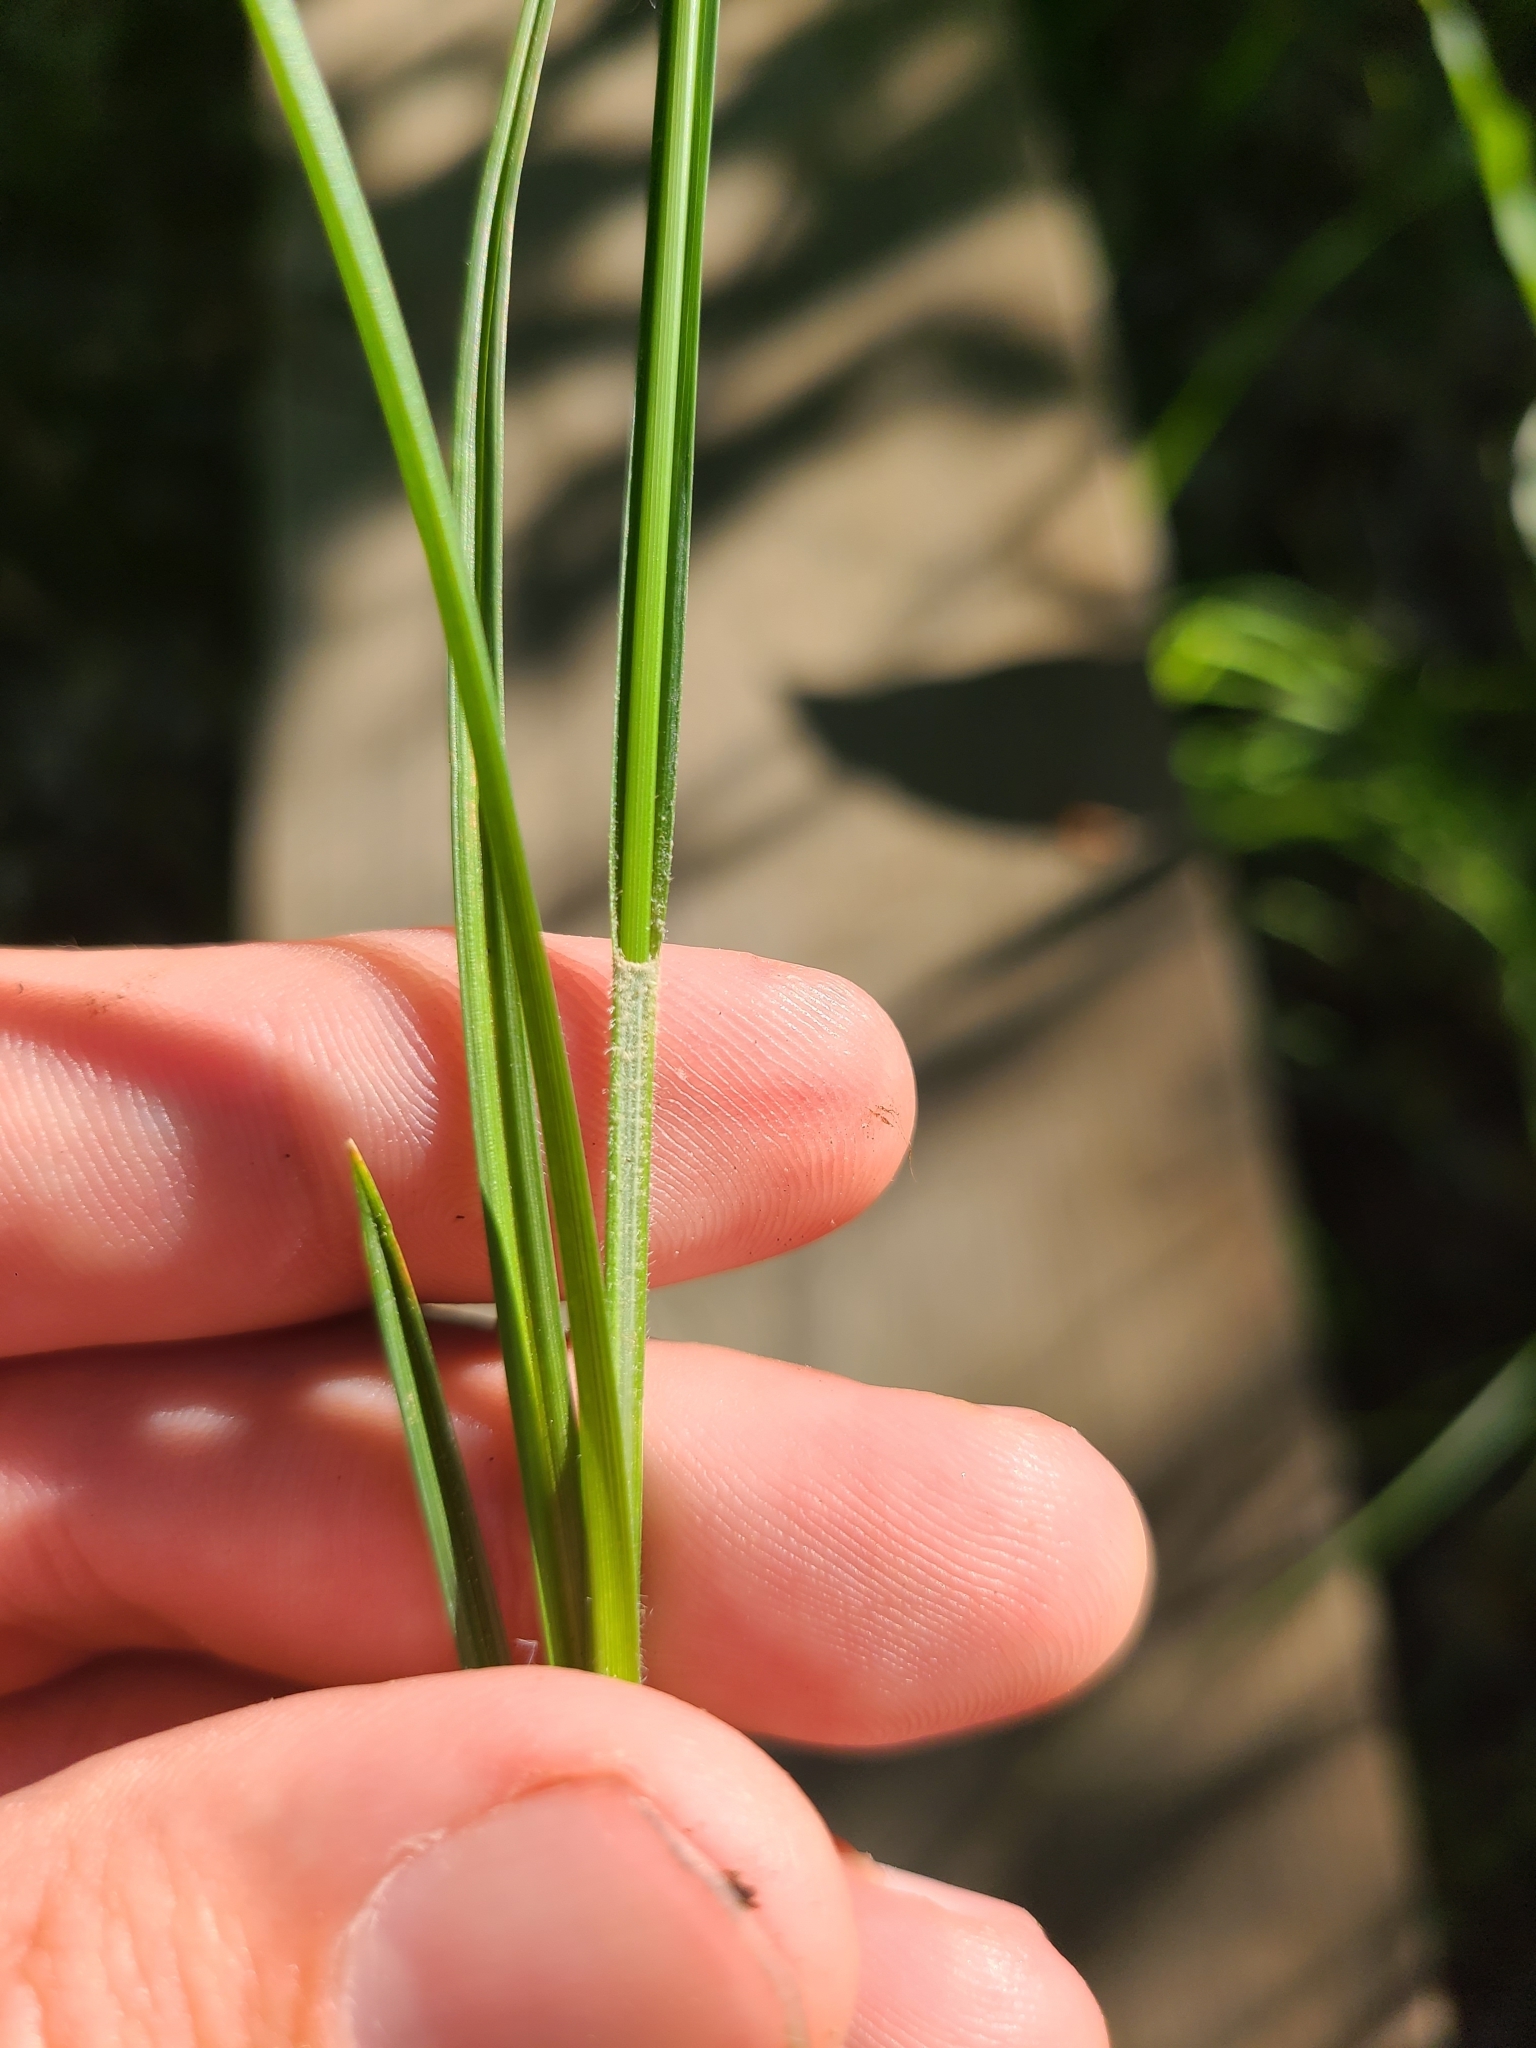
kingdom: Plantae
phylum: Tracheophyta
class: Liliopsida
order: Poales
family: Cyperaceae
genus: Carex
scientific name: Carex caroliniana
